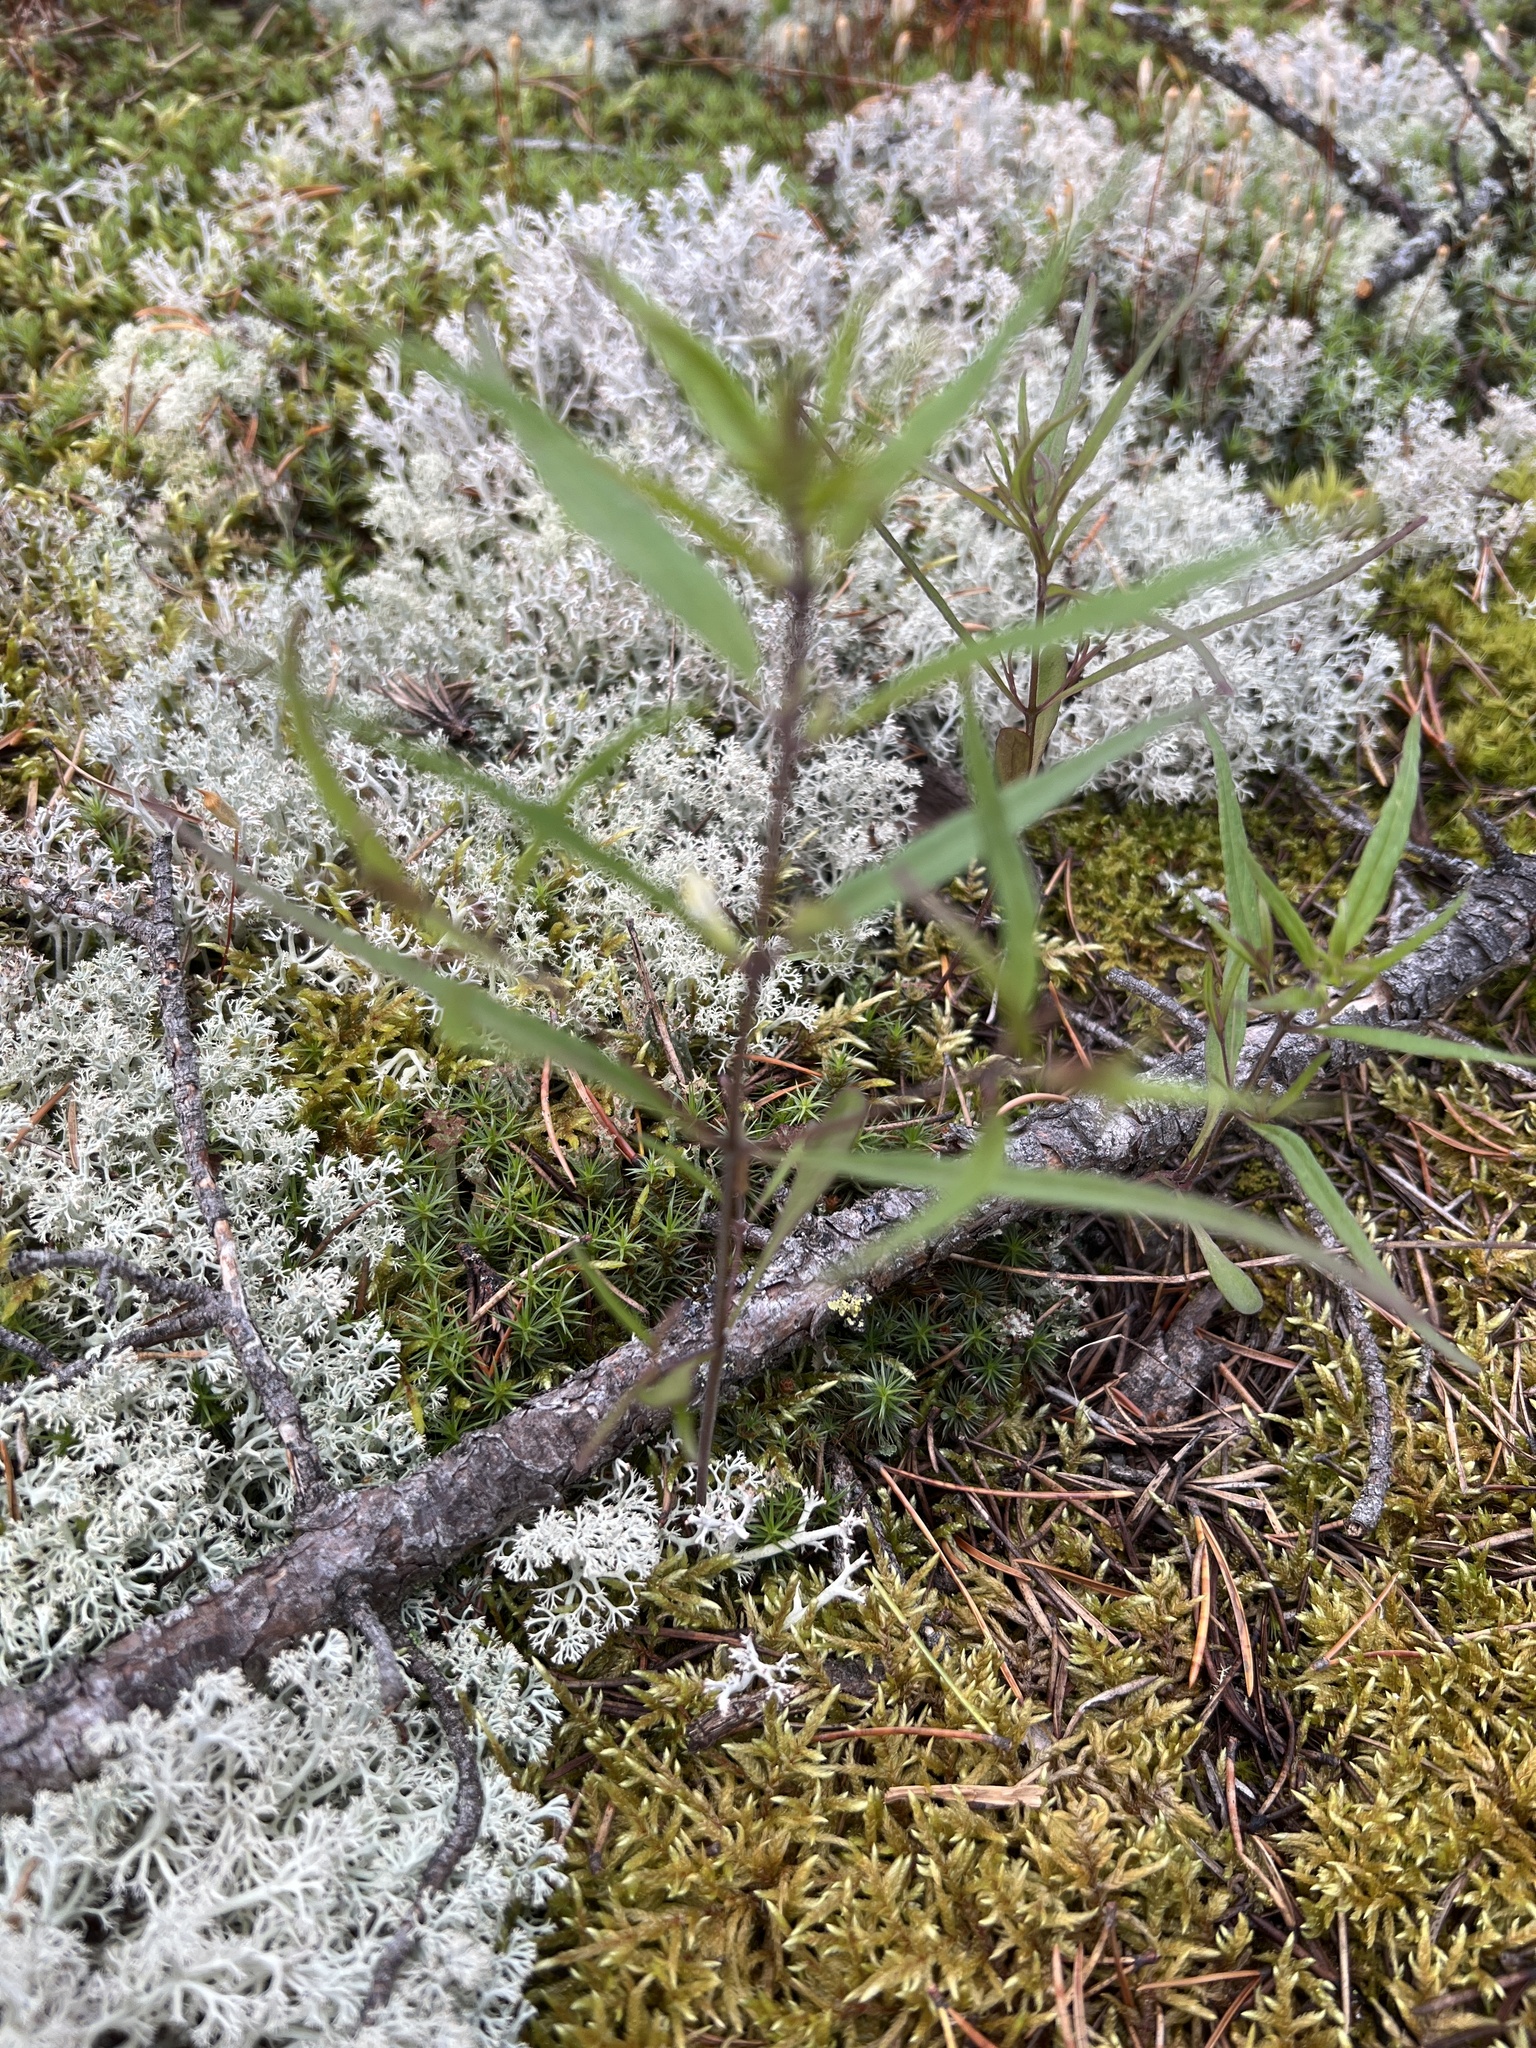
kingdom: Plantae
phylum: Tracheophyta
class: Magnoliopsida
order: Lamiales
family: Orobanchaceae
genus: Melampyrum
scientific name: Melampyrum lineare
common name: American cow-wheat
